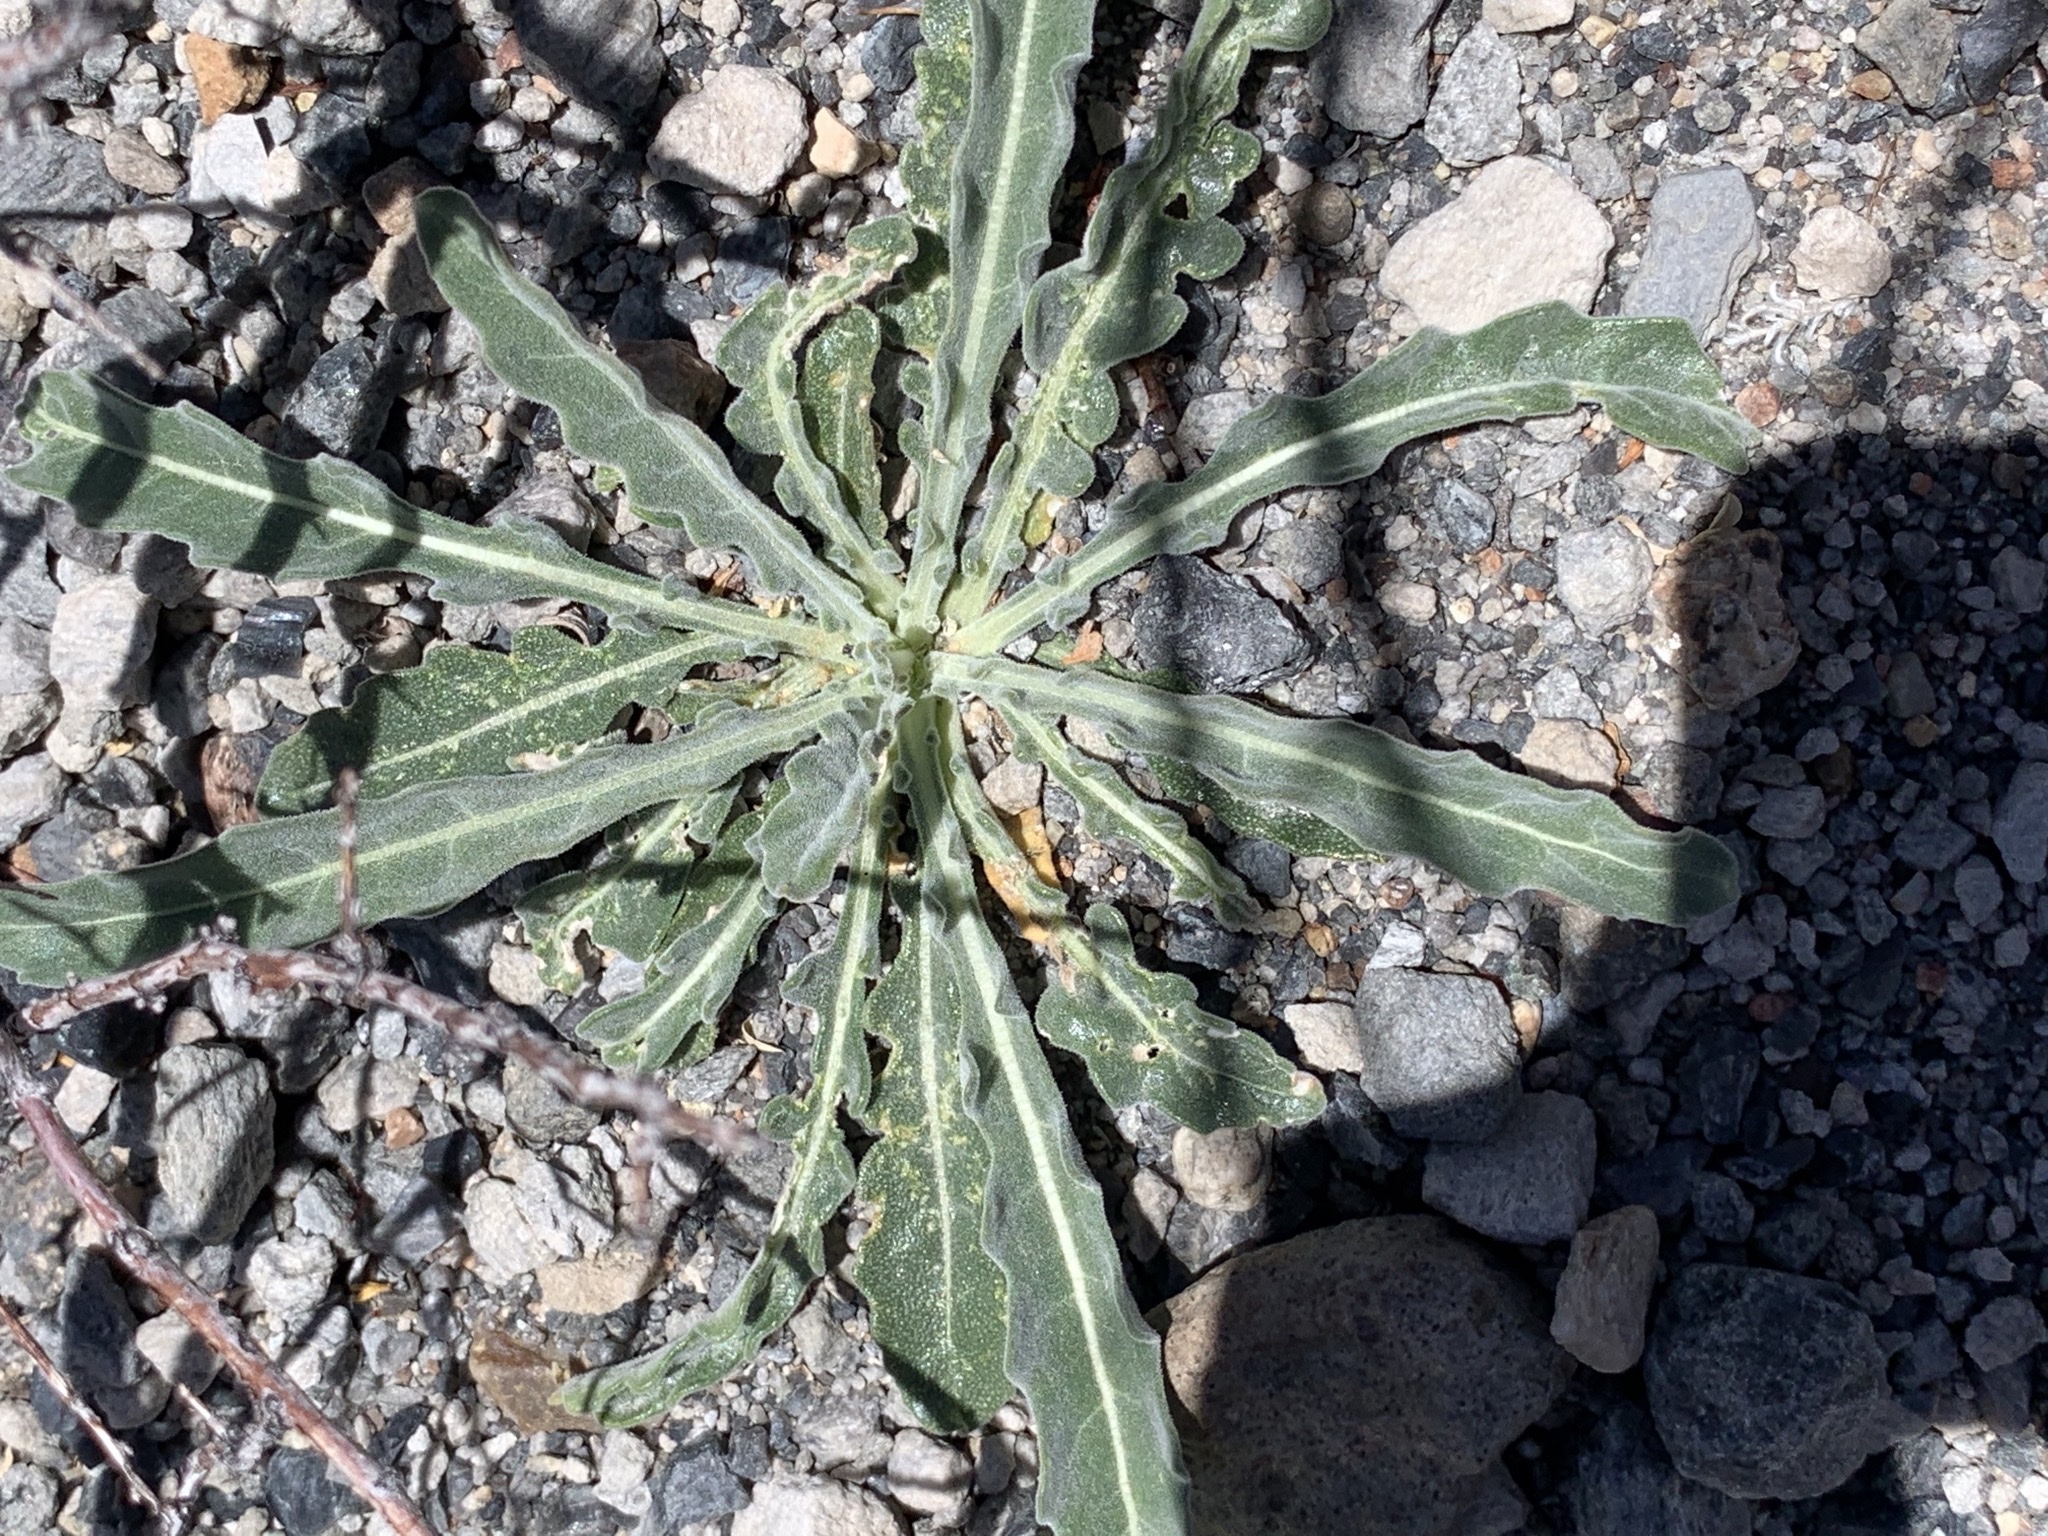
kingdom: Plantae
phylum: Tracheophyta
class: Magnoliopsida
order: Cornales
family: Loasaceae
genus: Mentzelia
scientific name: Mentzelia laevicaulis
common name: Smooth-stem blazingstar
